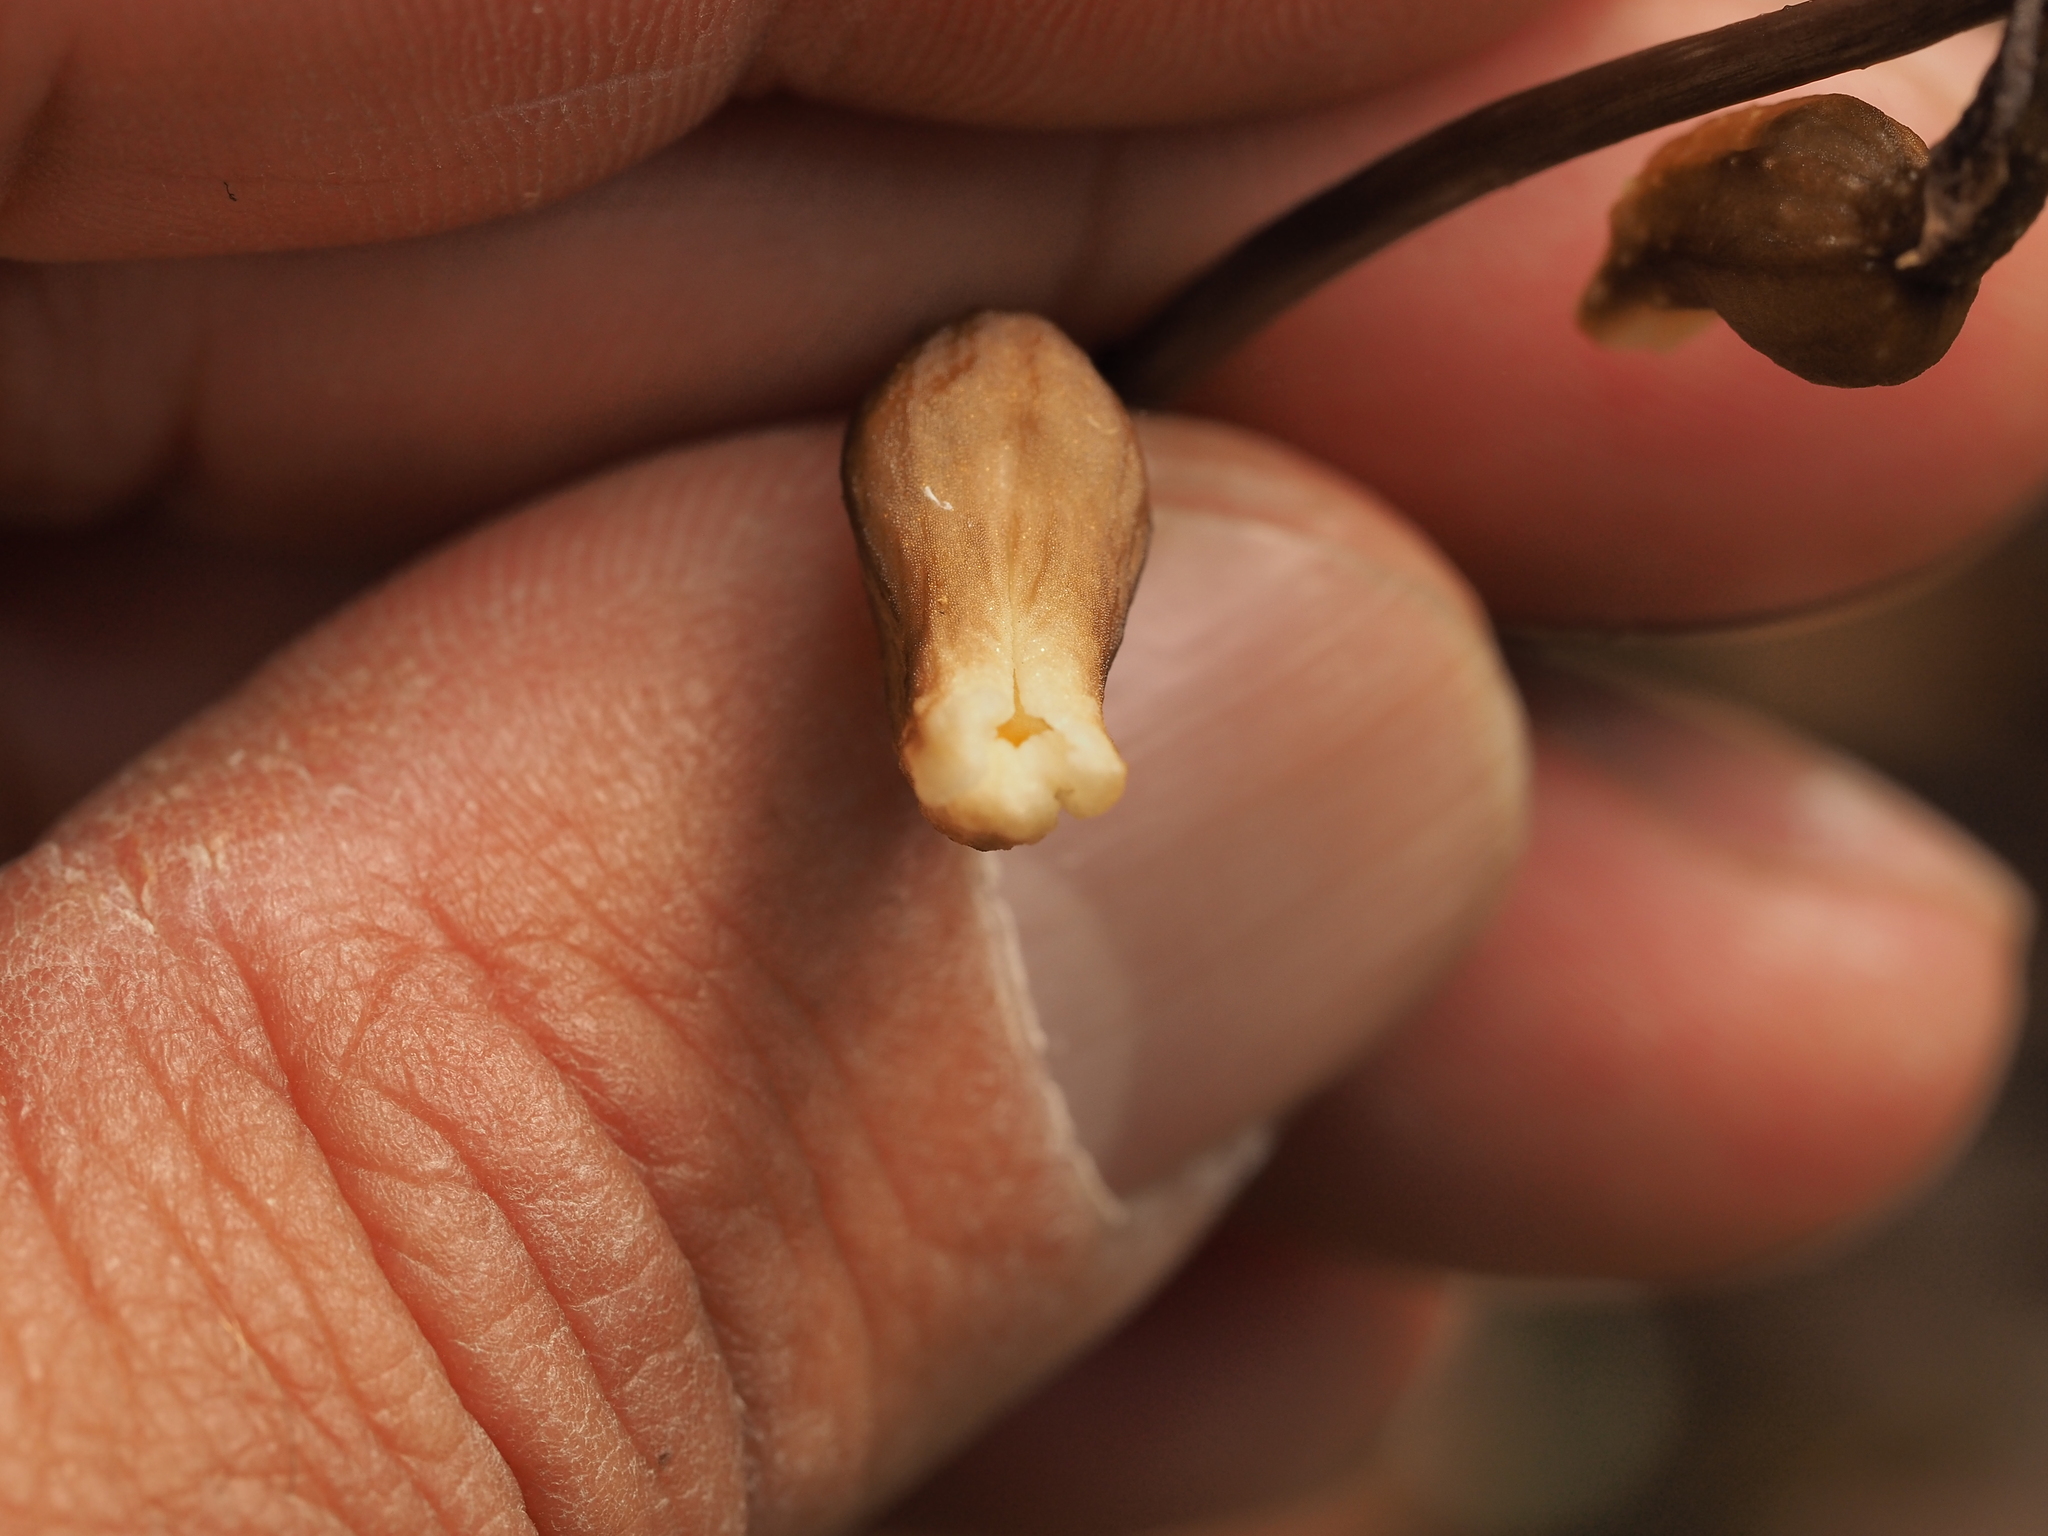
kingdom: Plantae
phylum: Tracheophyta
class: Liliopsida
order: Asparagales
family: Orchidaceae
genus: Gastrodia
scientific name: Gastrodia sesamoides
